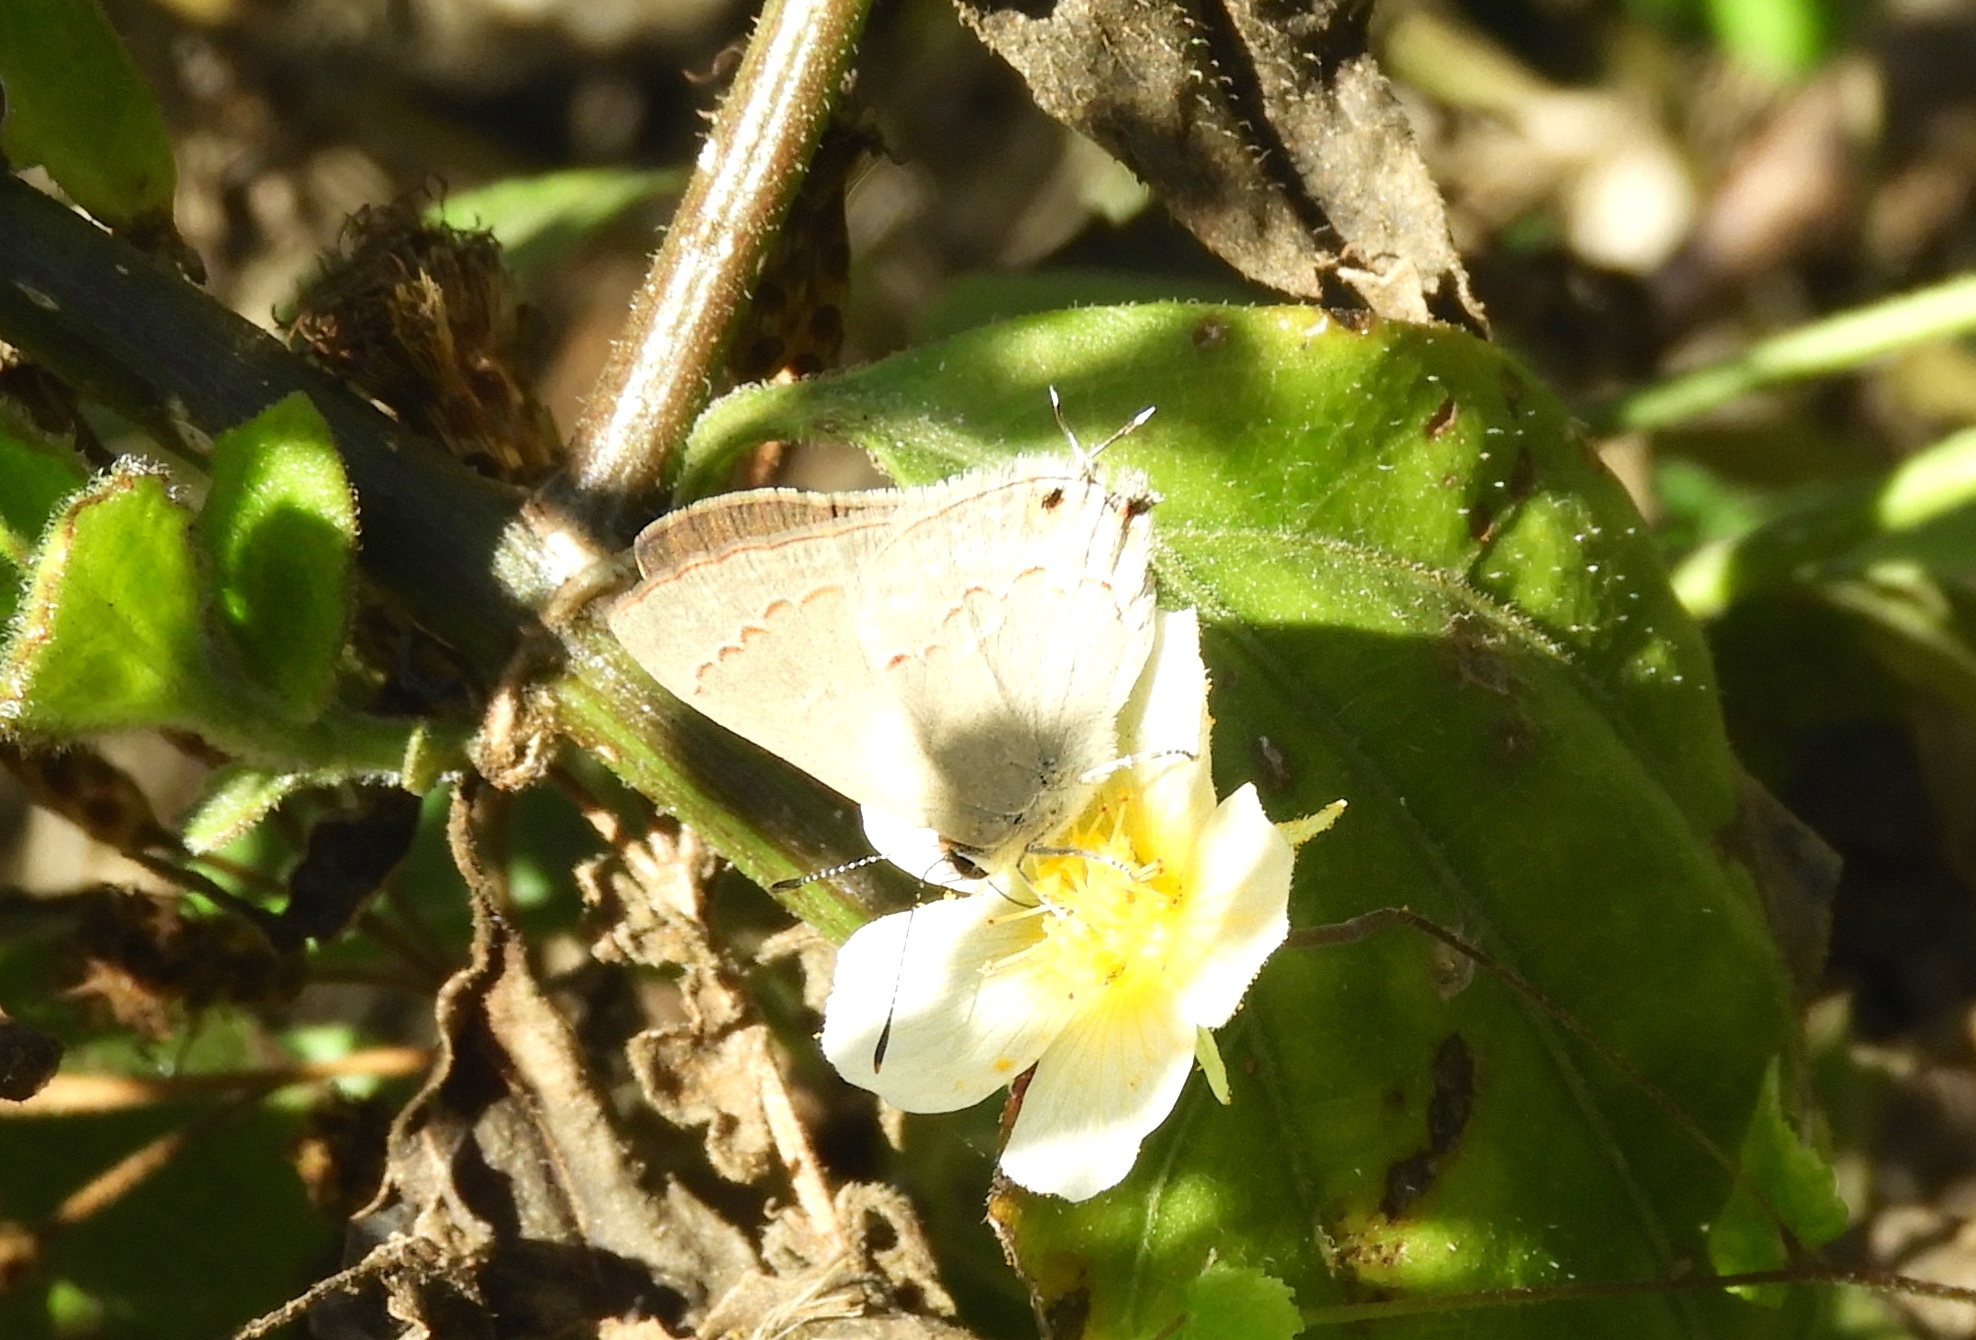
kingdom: Animalia
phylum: Arthropoda
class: Insecta
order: Lepidoptera
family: Lycaenidae
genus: Thecla
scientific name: Thecla rufofusca
